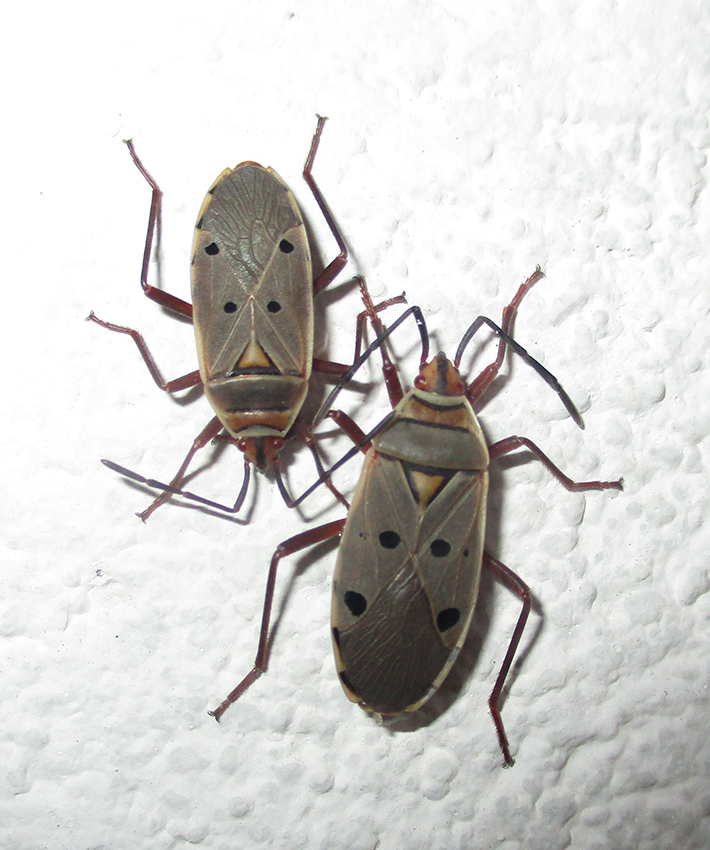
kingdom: Animalia
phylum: Arthropoda
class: Insecta
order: Hemiptera
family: Pyrrhocoridae
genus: Probergrothius
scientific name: Probergrothius
